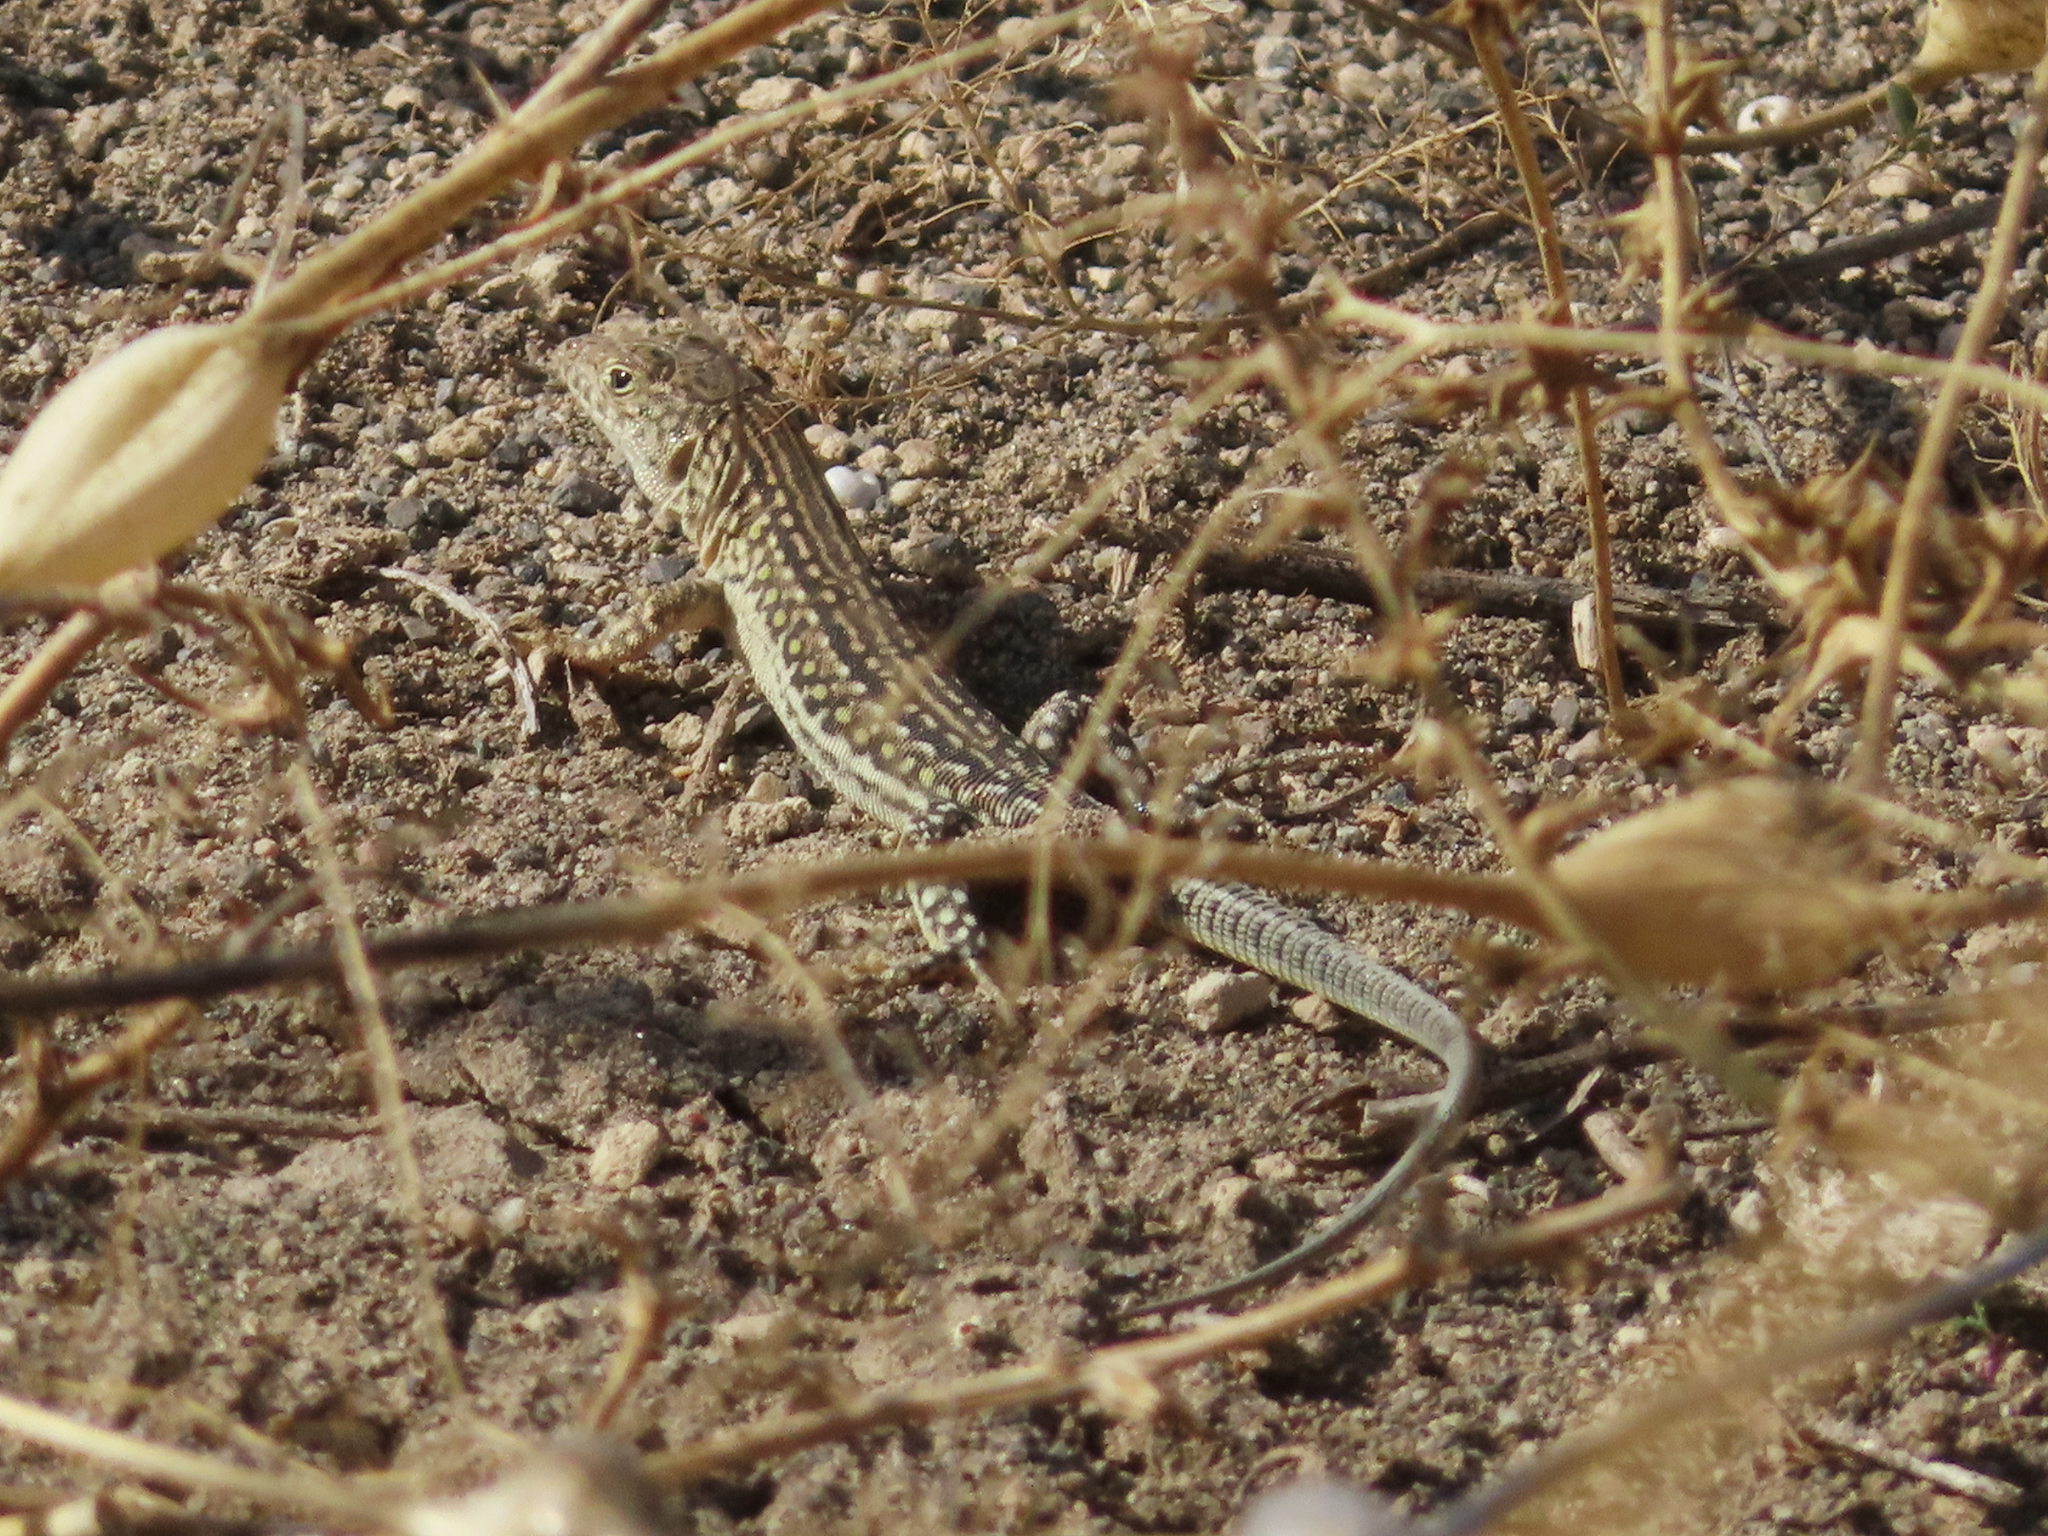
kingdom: Animalia
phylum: Chordata
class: Squamata
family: Lacertidae
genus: Eremias
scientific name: Eremias strauchi
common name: Strauch's racerunner
